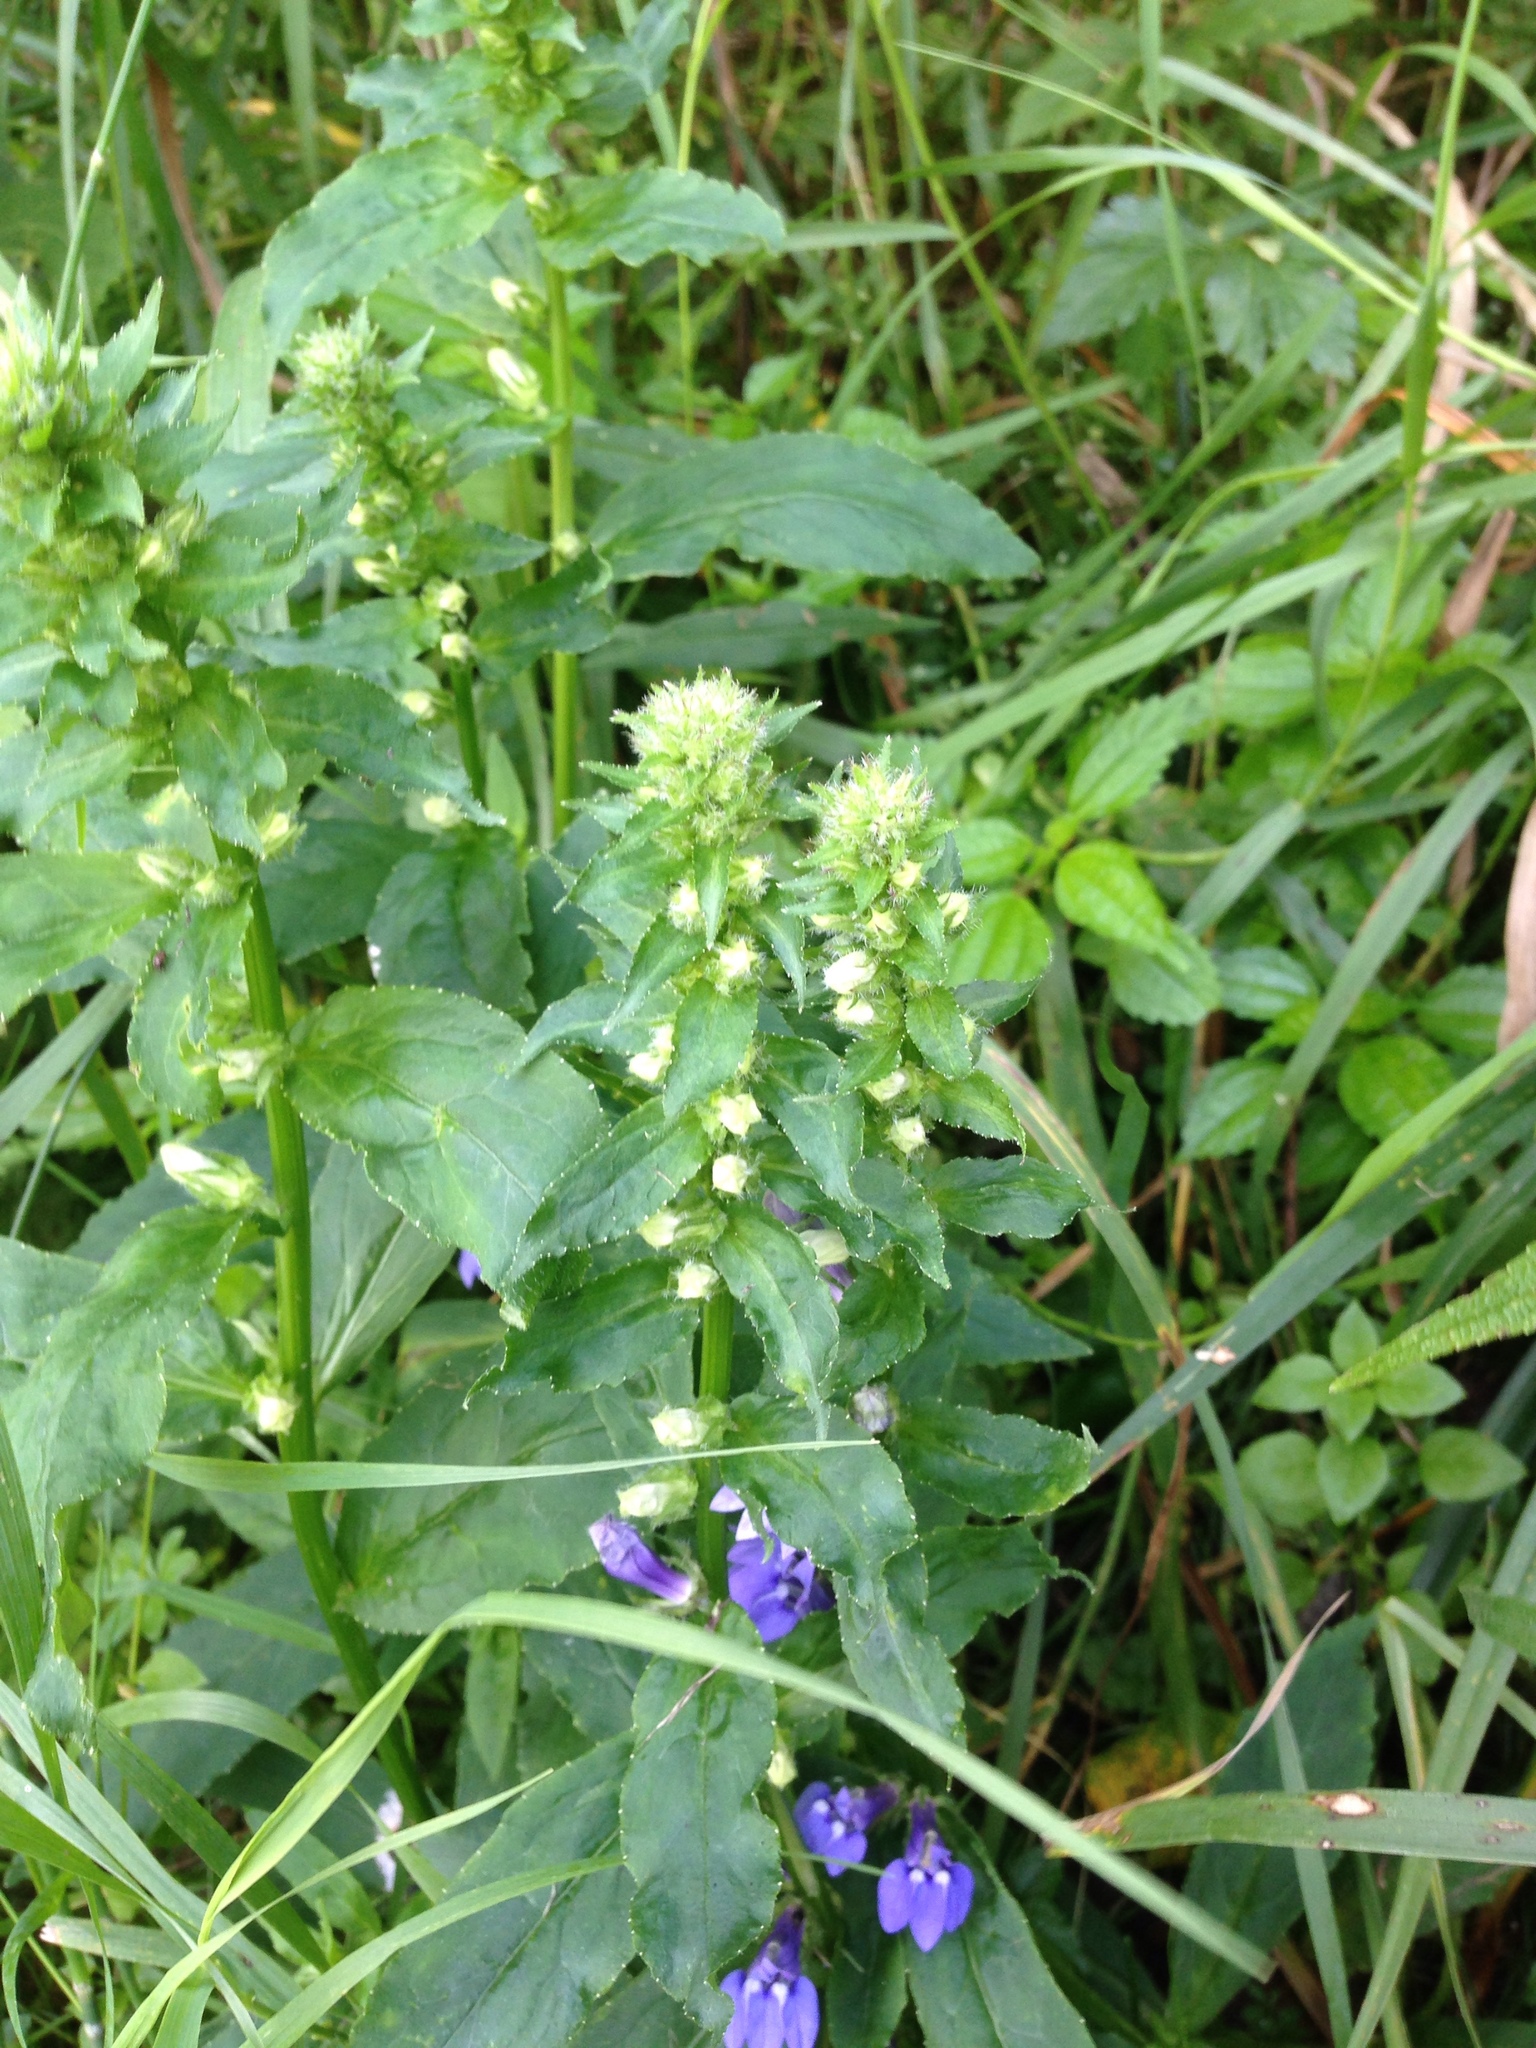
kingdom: Plantae
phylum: Tracheophyta
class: Magnoliopsida
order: Asterales
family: Campanulaceae
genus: Lobelia
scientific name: Lobelia siphilitica
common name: Great lobelia
